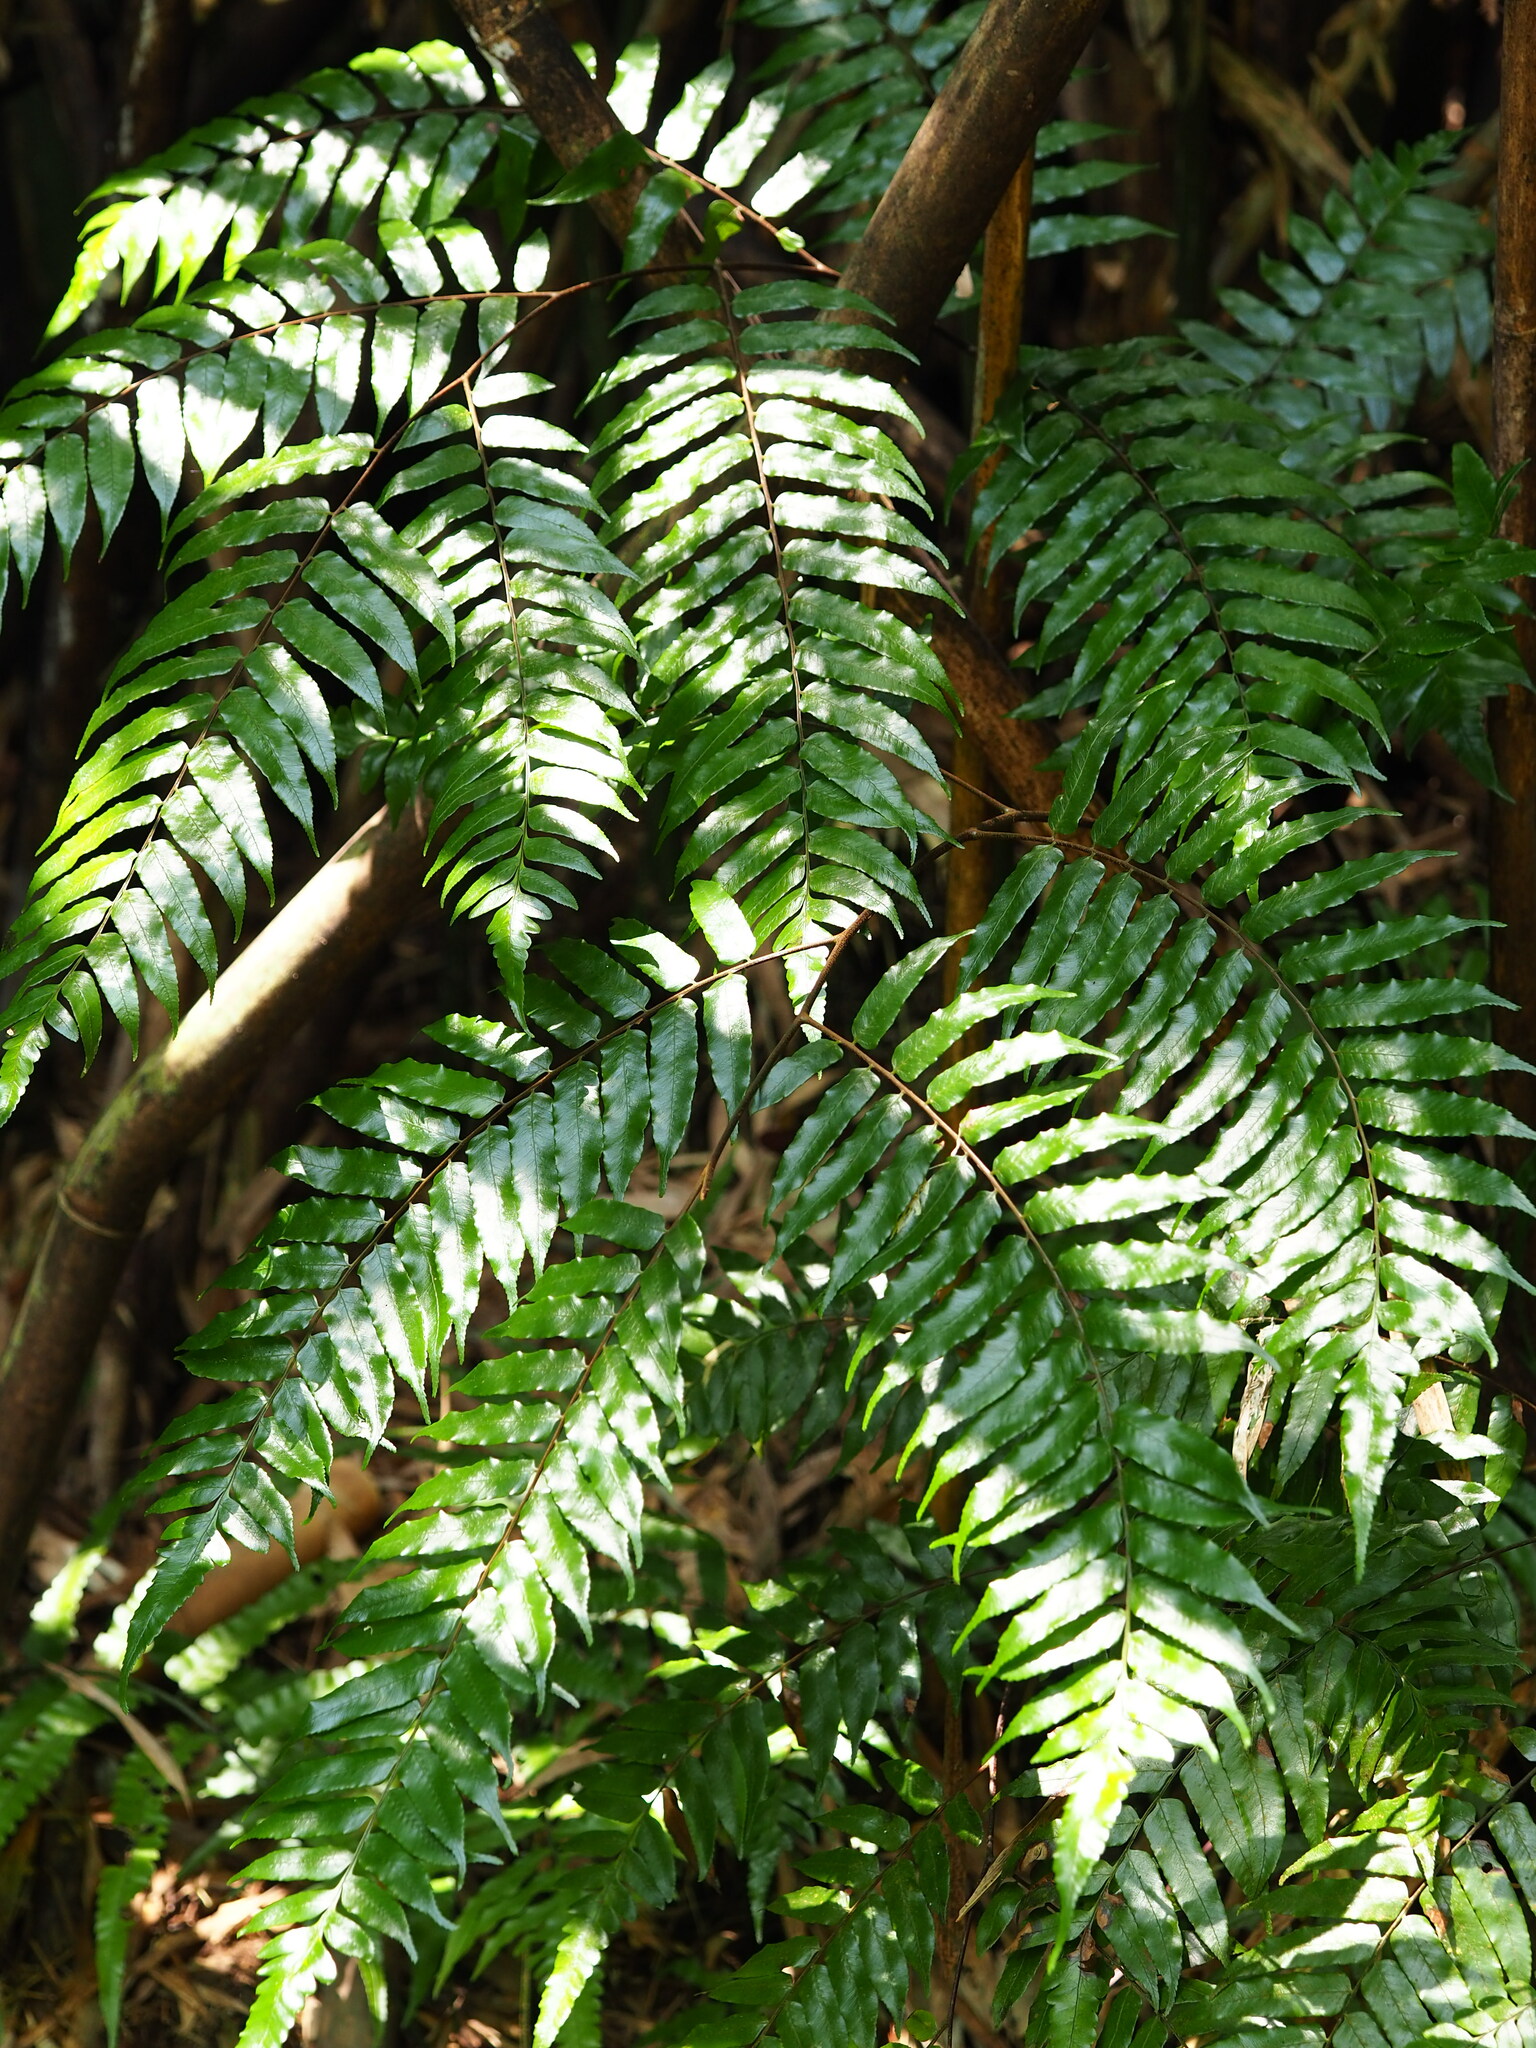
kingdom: Plantae
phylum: Tracheophyta
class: Polypodiopsida
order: Cyatheales
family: Cyatheaceae
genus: Gymnosphaera
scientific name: Gymnosphaera podophylla
